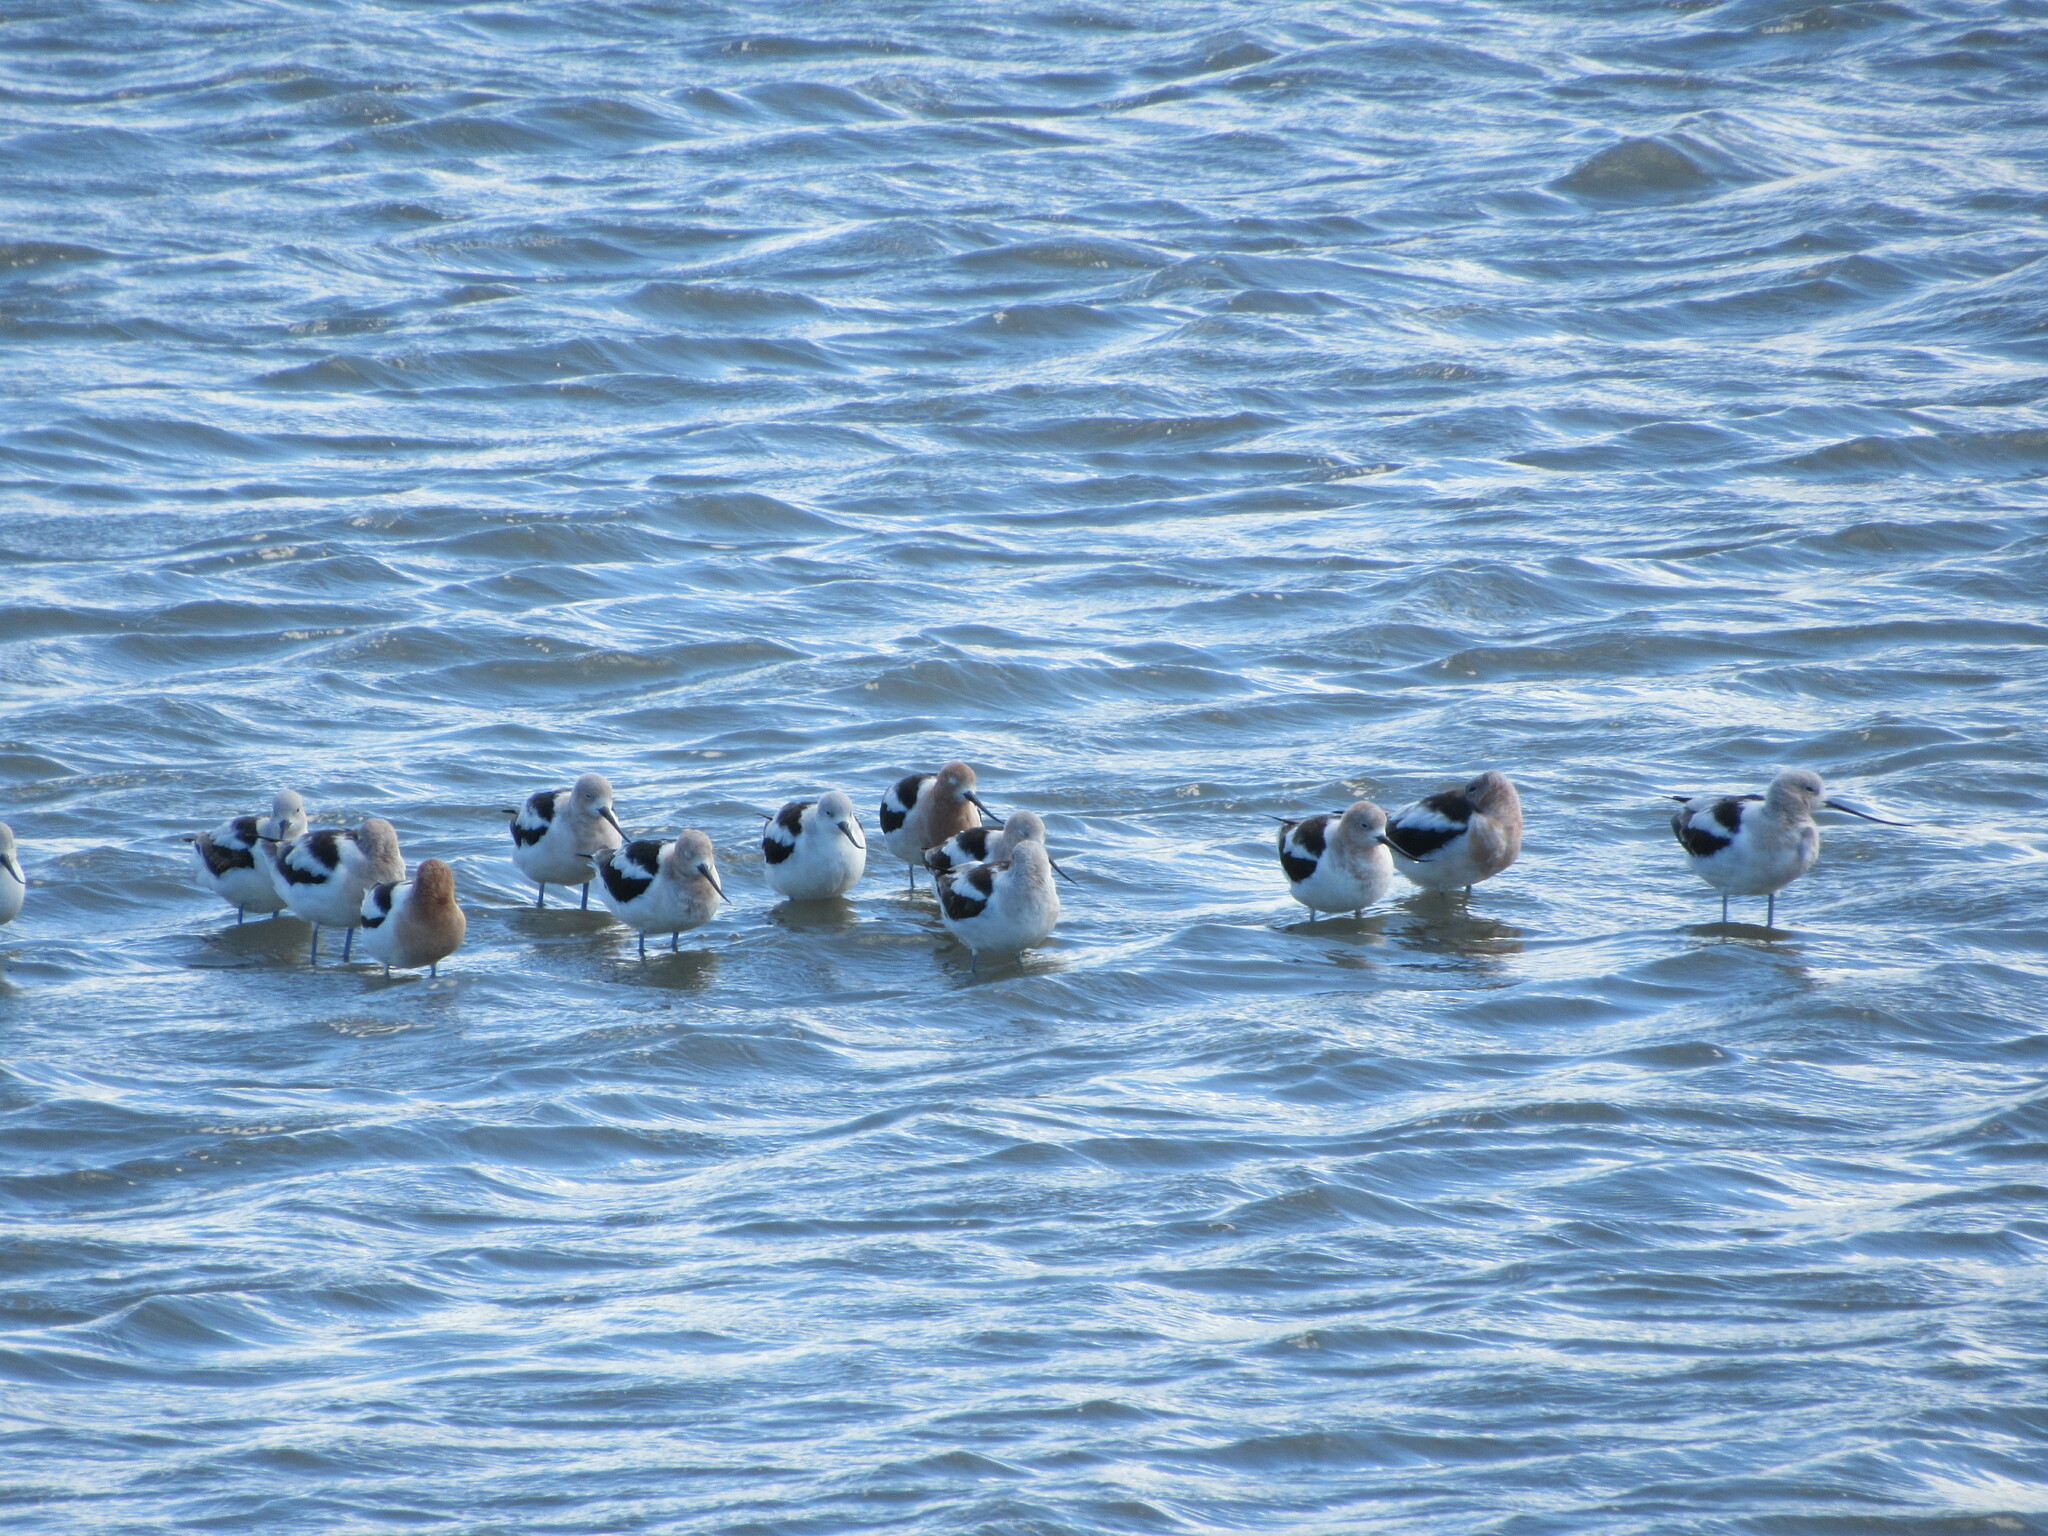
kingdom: Animalia
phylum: Chordata
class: Aves
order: Charadriiformes
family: Recurvirostridae
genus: Recurvirostra
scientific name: Recurvirostra americana
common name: American avocet
